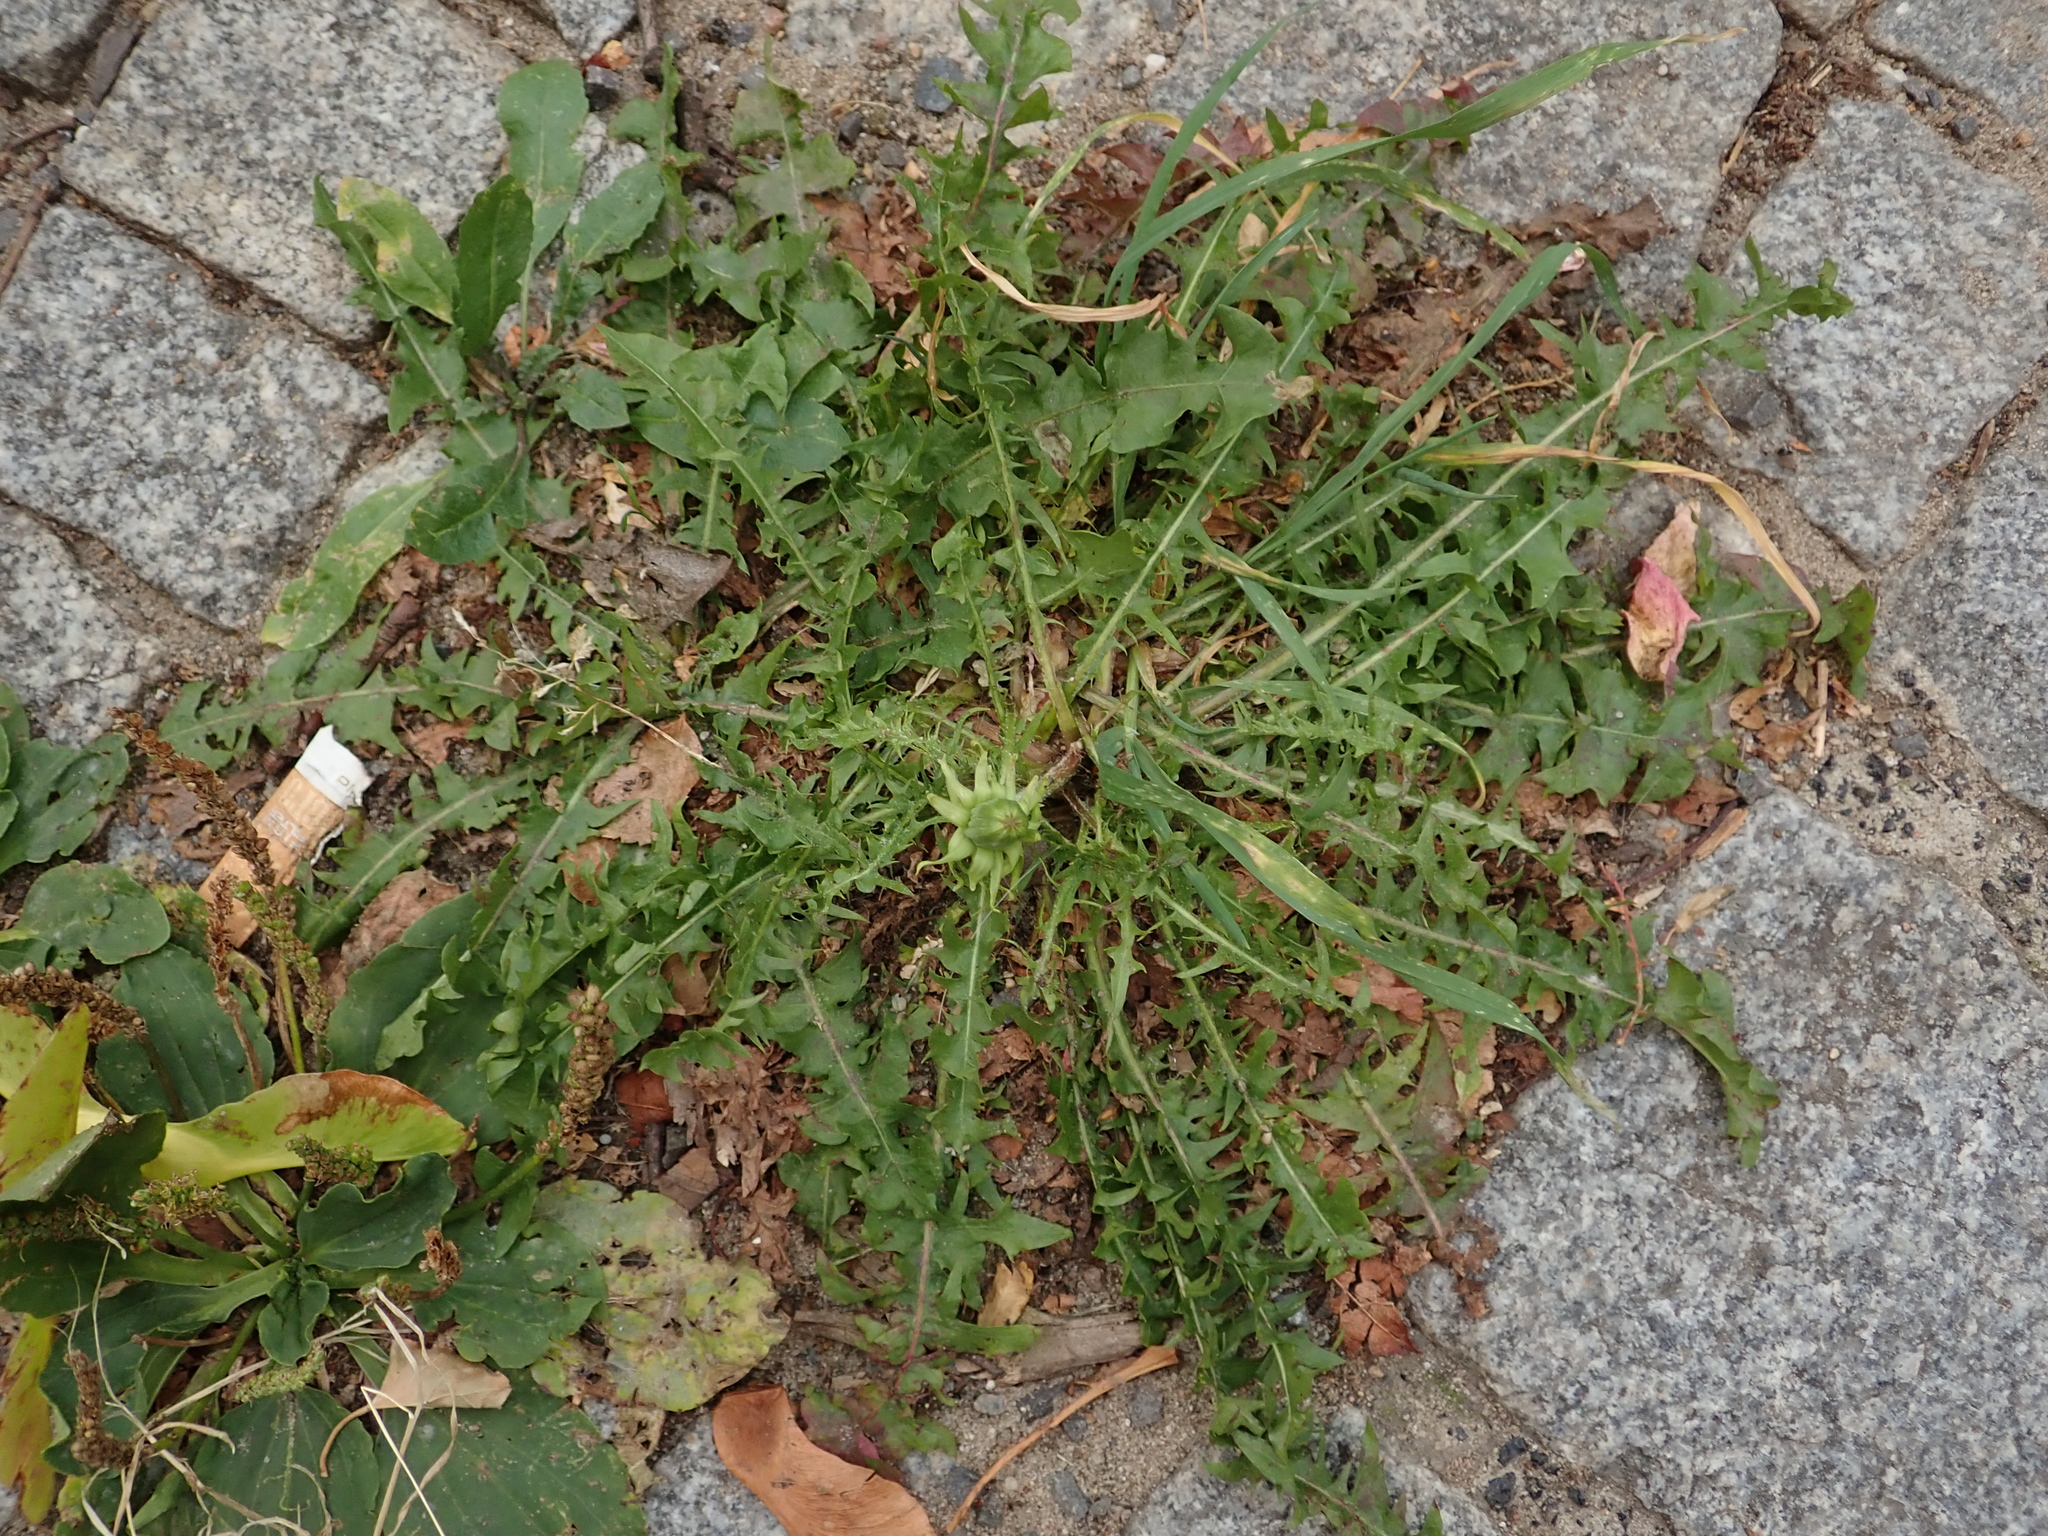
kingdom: Plantae
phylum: Tracheophyta
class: Magnoliopsida
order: Asterales
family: Asteraceae
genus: Taraxacum
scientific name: Taraxacum officinale
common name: Common dandelion
